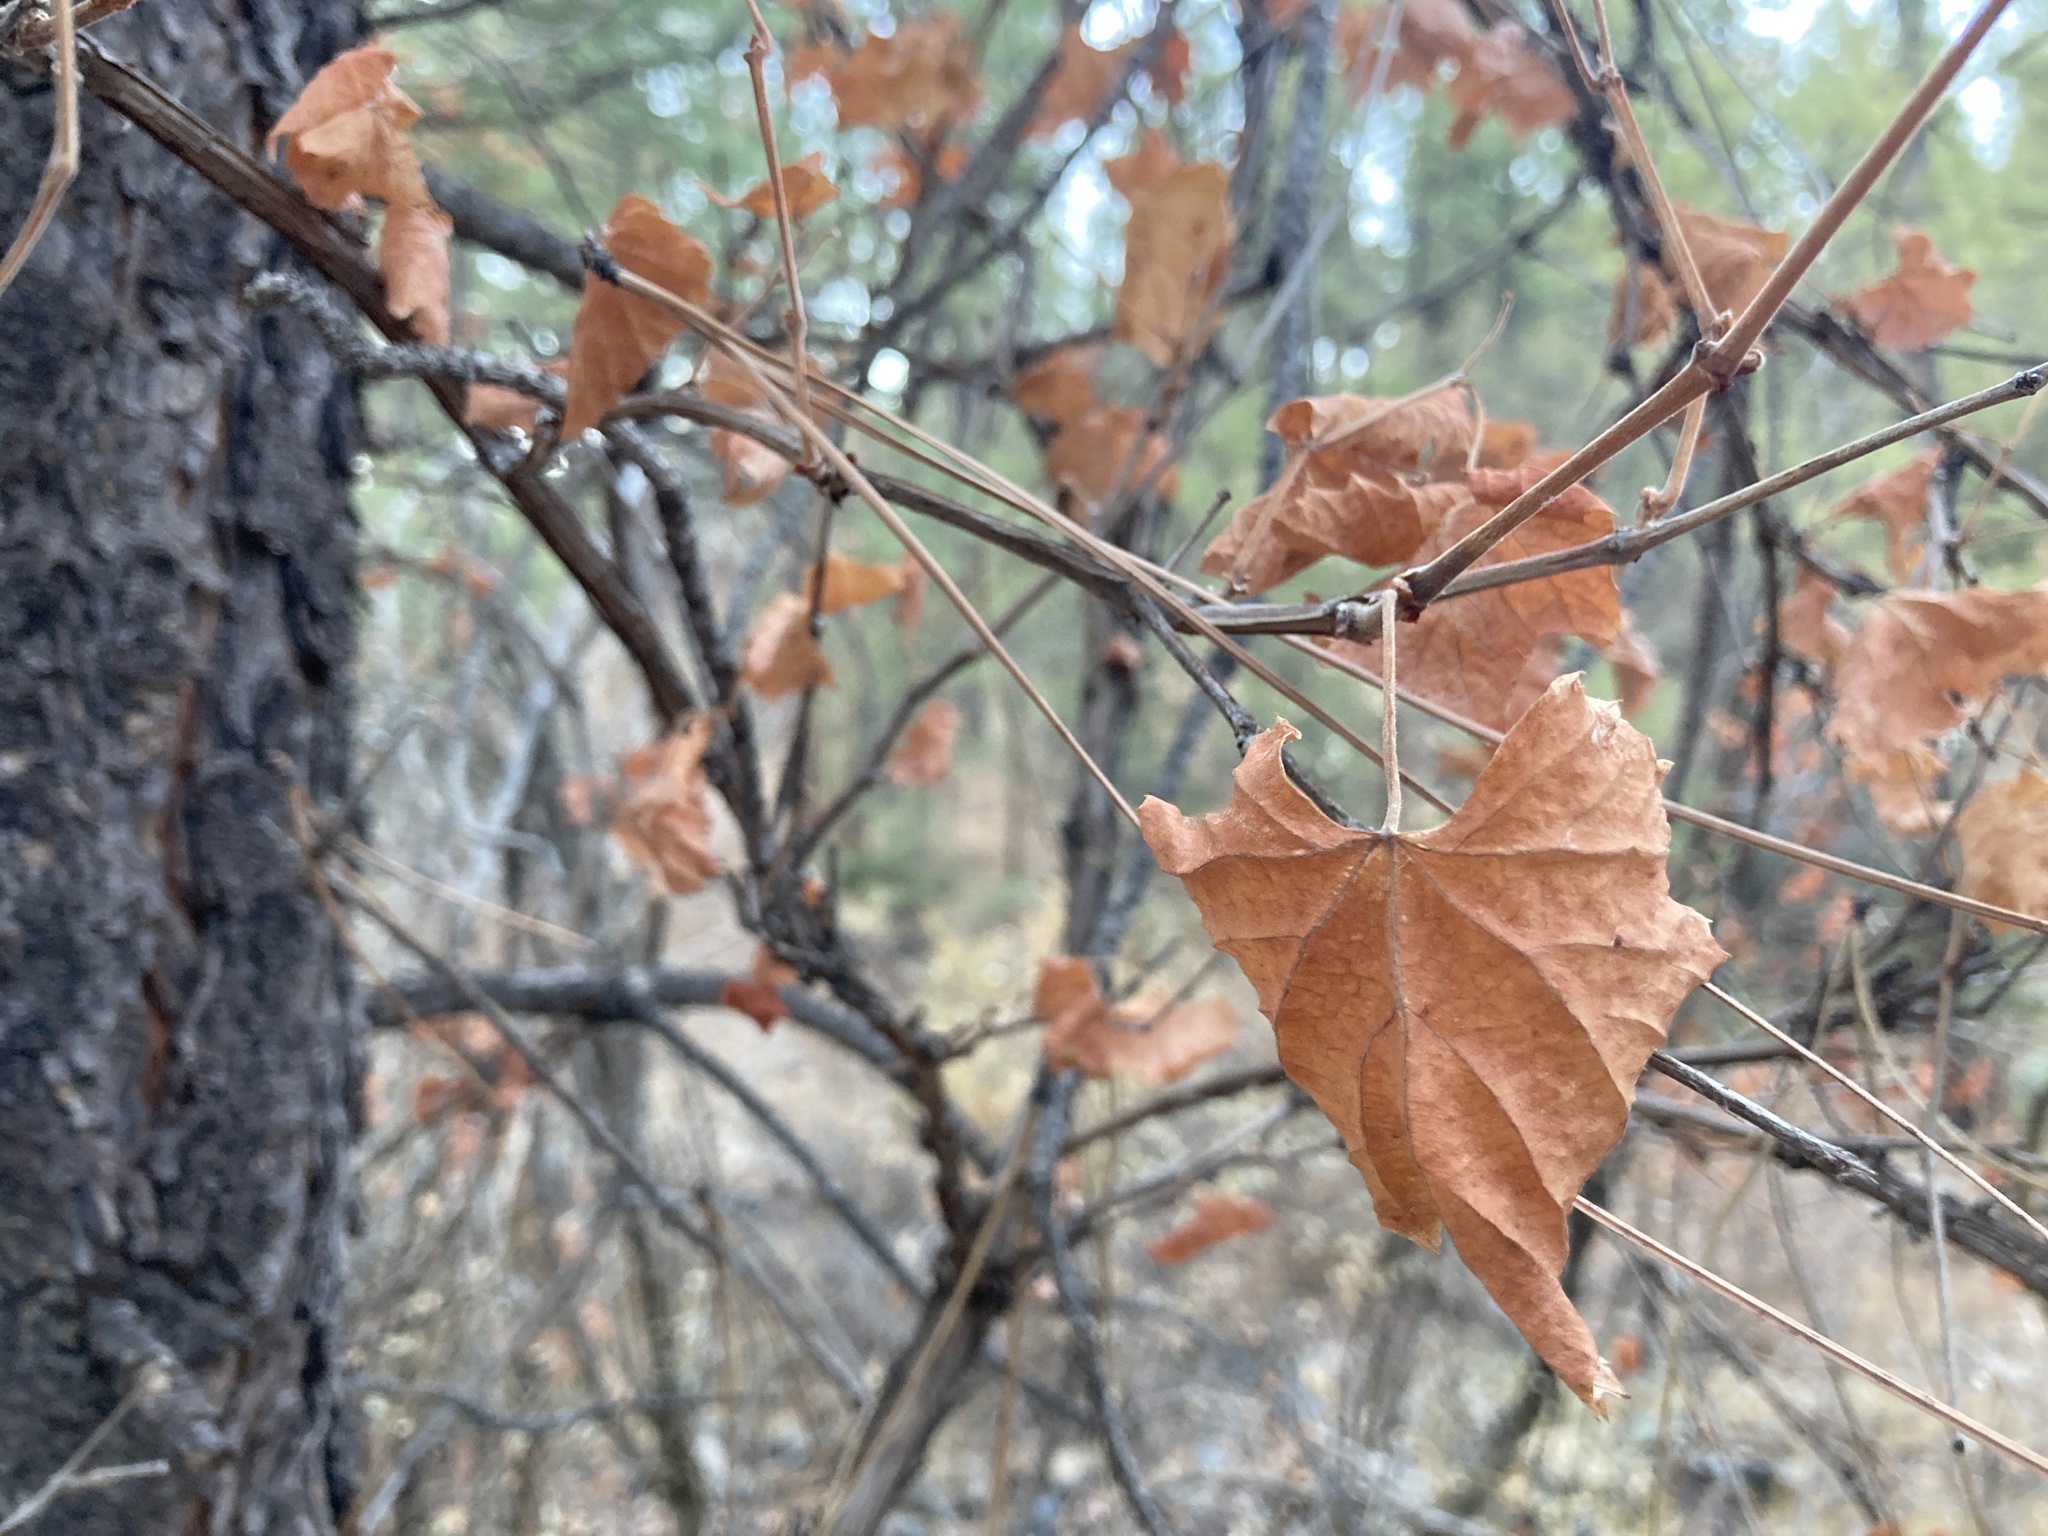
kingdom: Plantae
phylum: Tracheophyta
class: Magnoliopsida
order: Vitales
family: Vitaceae
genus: Vitis
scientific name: Vitis arizonica
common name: Canyon grape
